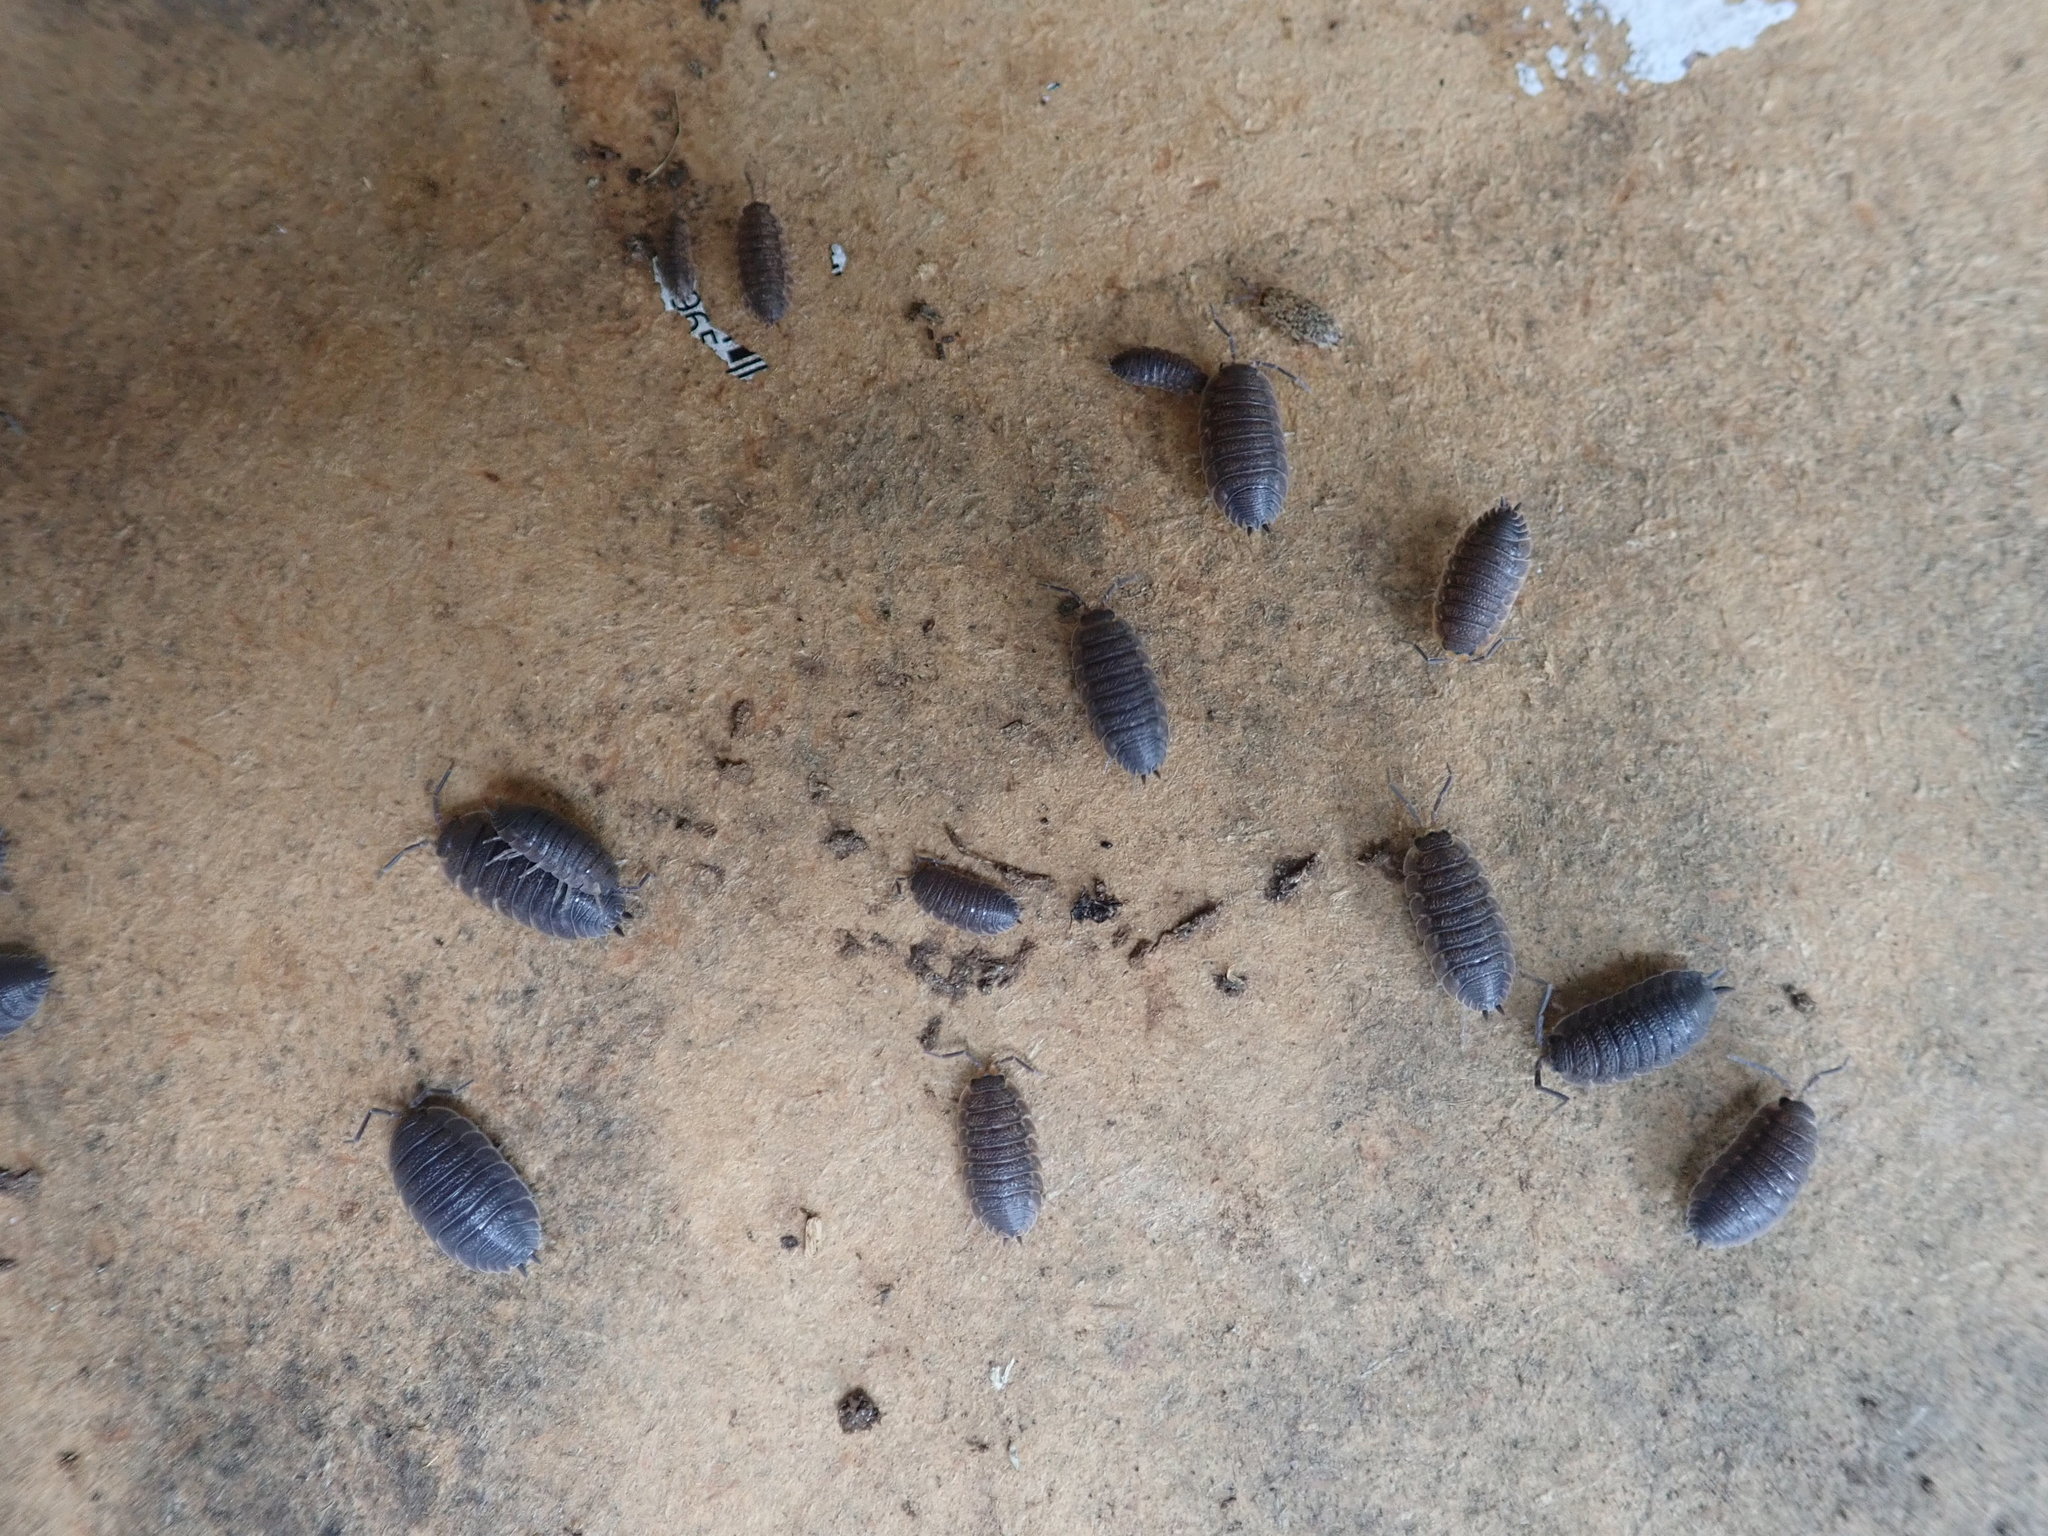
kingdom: Animalia
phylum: Arthropoda
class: Malacostraca
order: Isopoda
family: Porcellionidae
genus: Porcellio
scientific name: Porcellio scaber
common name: Common rough woodlouse
